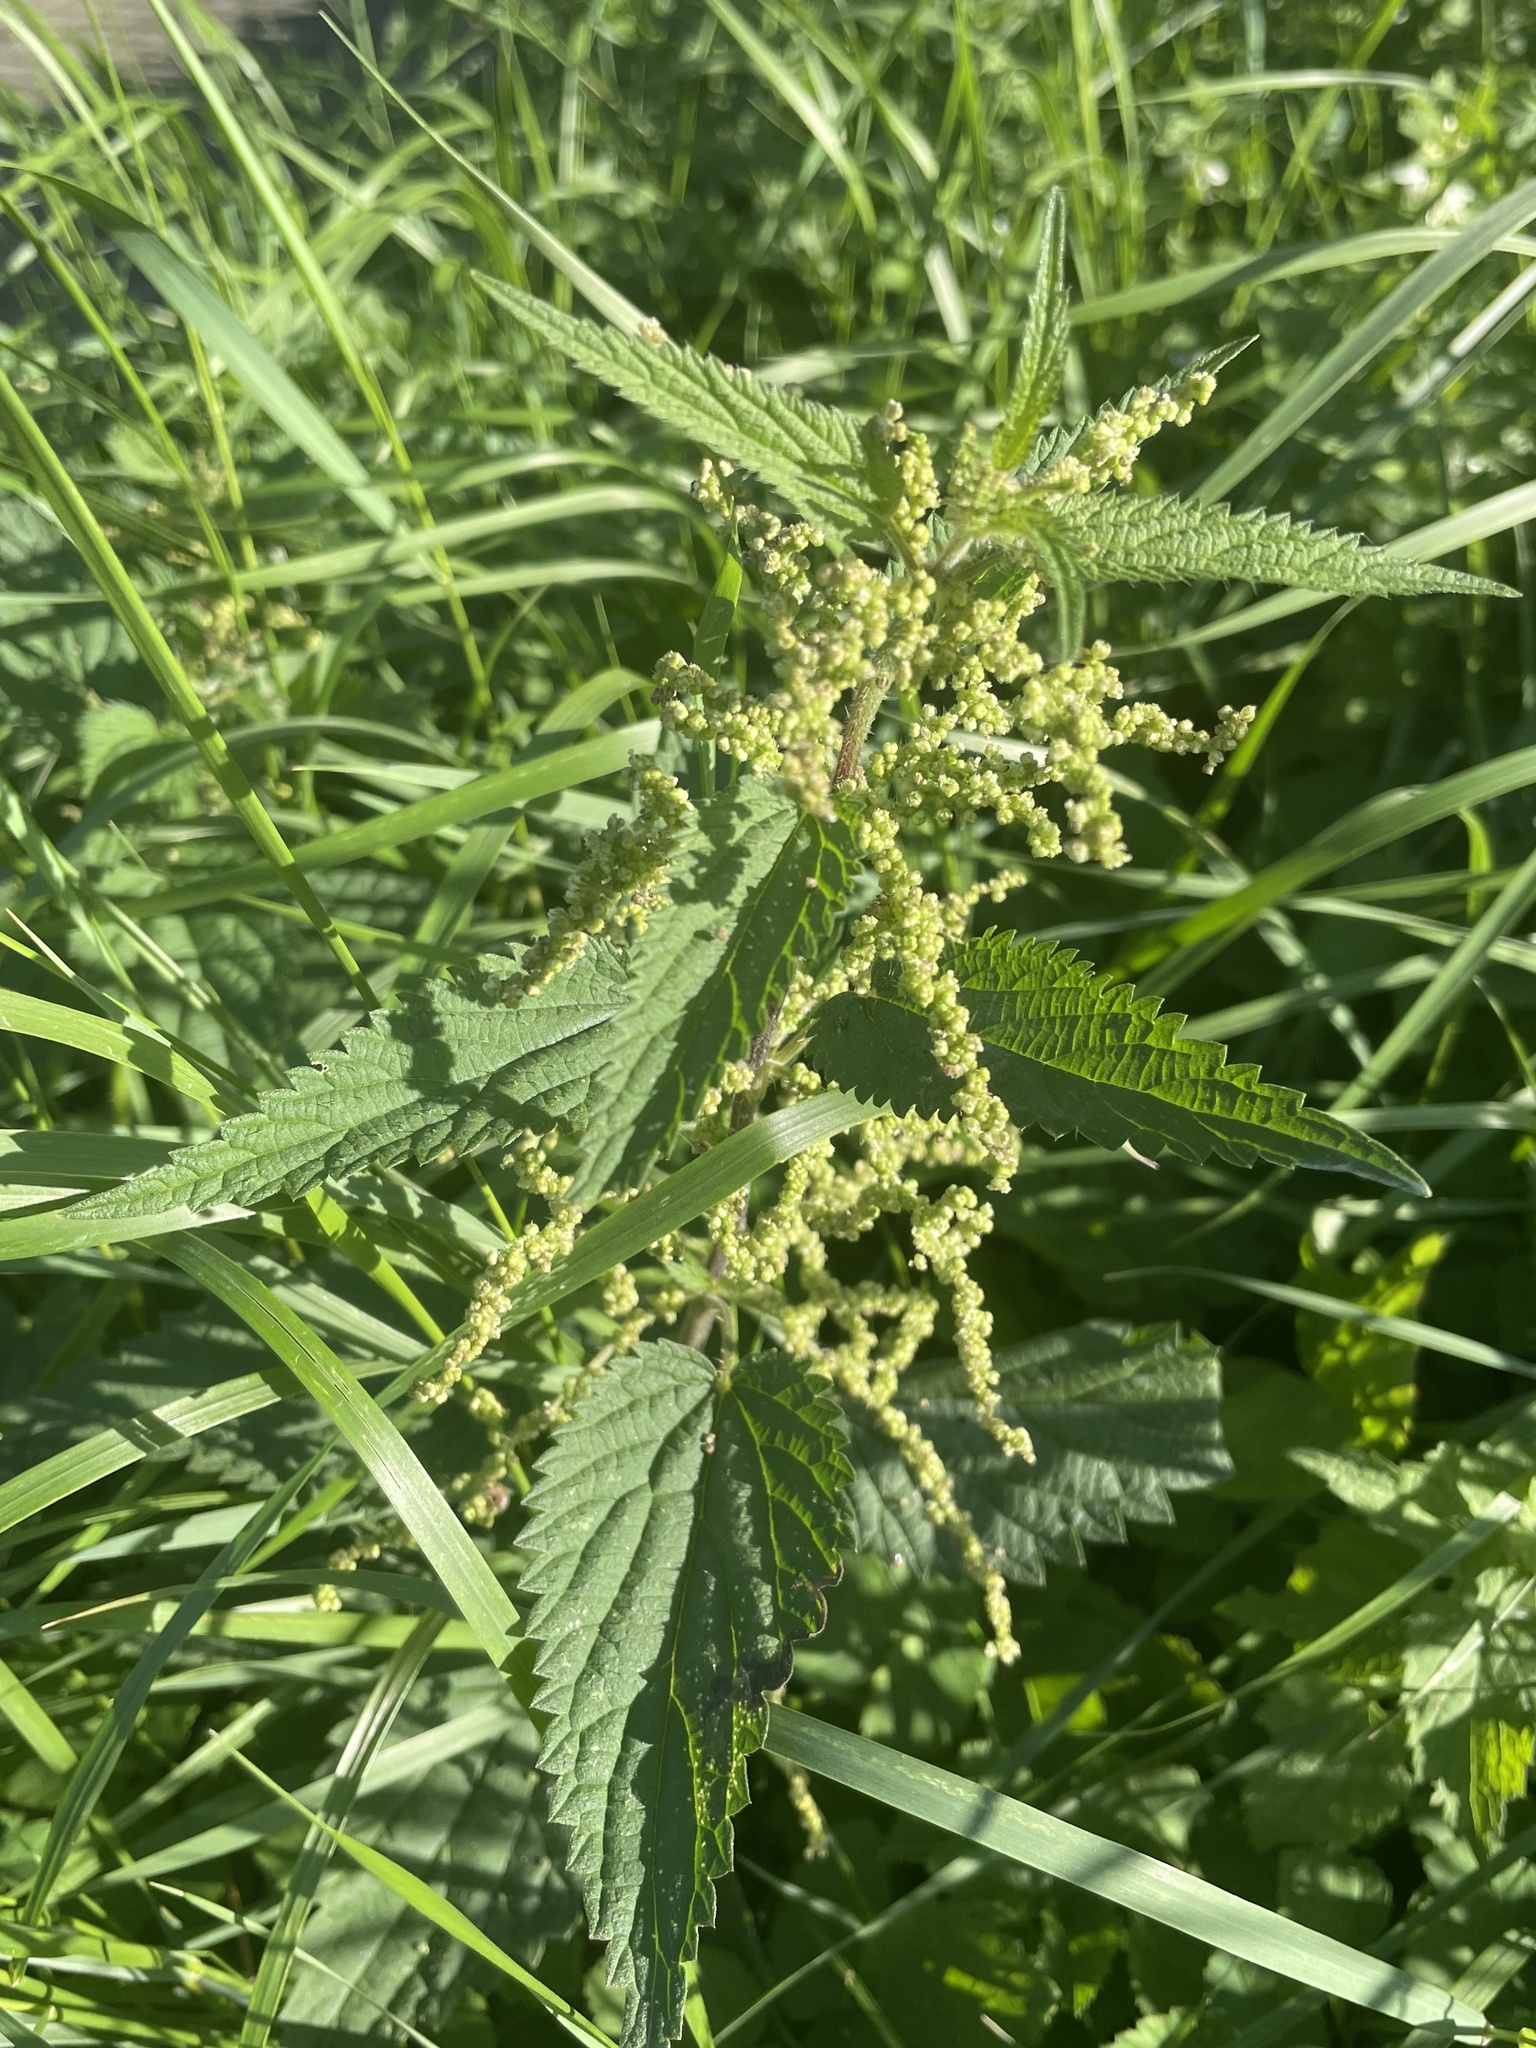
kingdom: Plantae
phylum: Tracheophyta
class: Magnoliopsida
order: Rosales
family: Urticaceae
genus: Urtica
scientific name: Urtica dioica
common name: Common nettle
